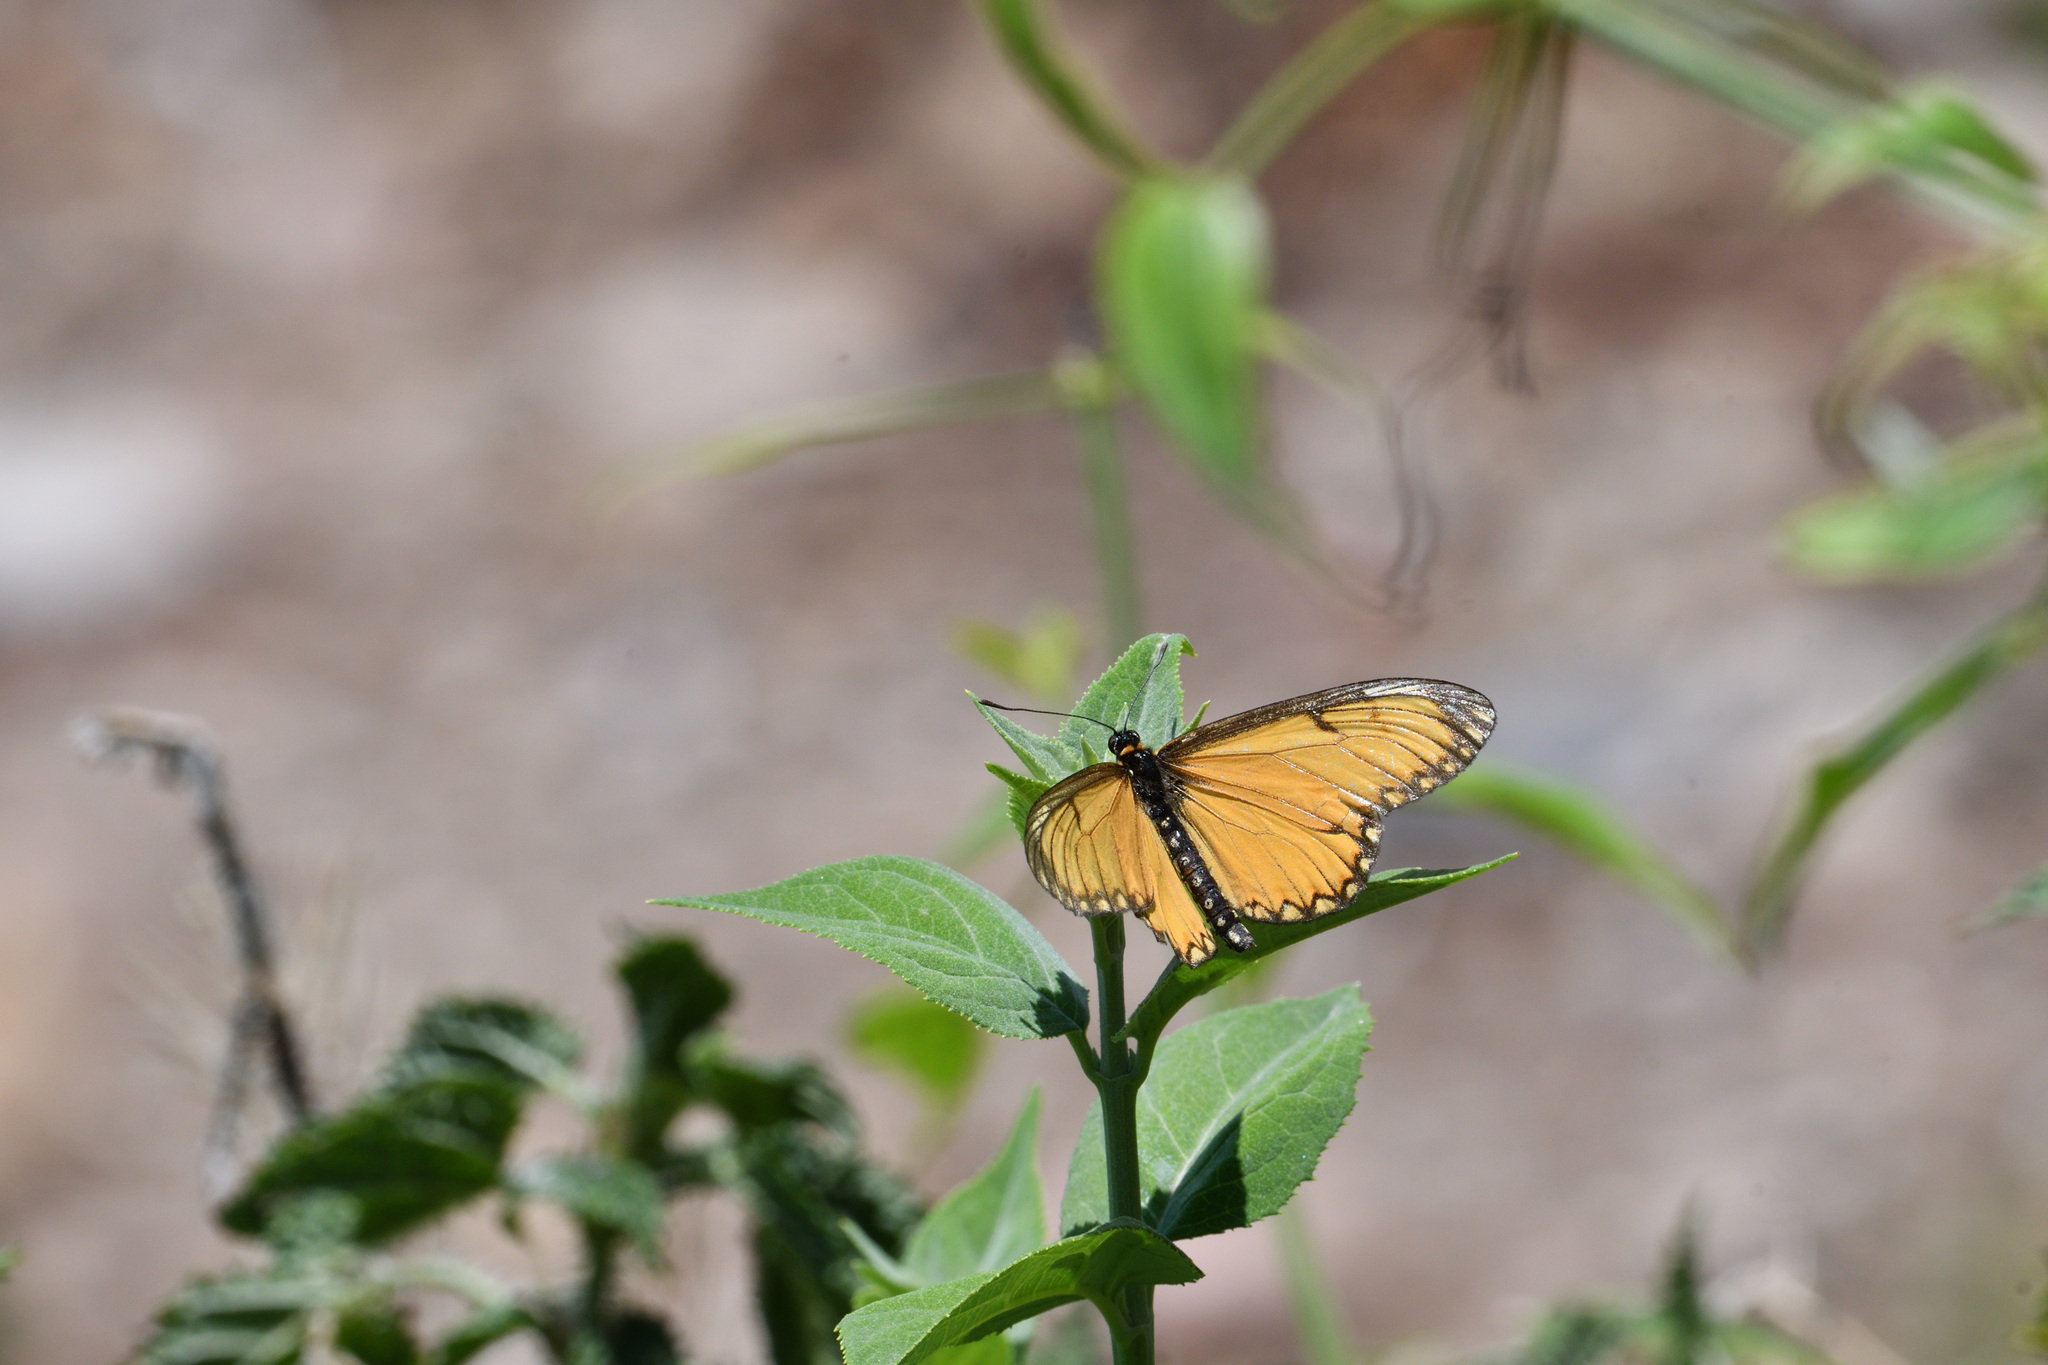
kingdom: Animalia
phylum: Arthropoda
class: Insecta
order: Lepidoptera
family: Nymphalidae
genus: Acraea
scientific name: Acraea Telchinia issoria
